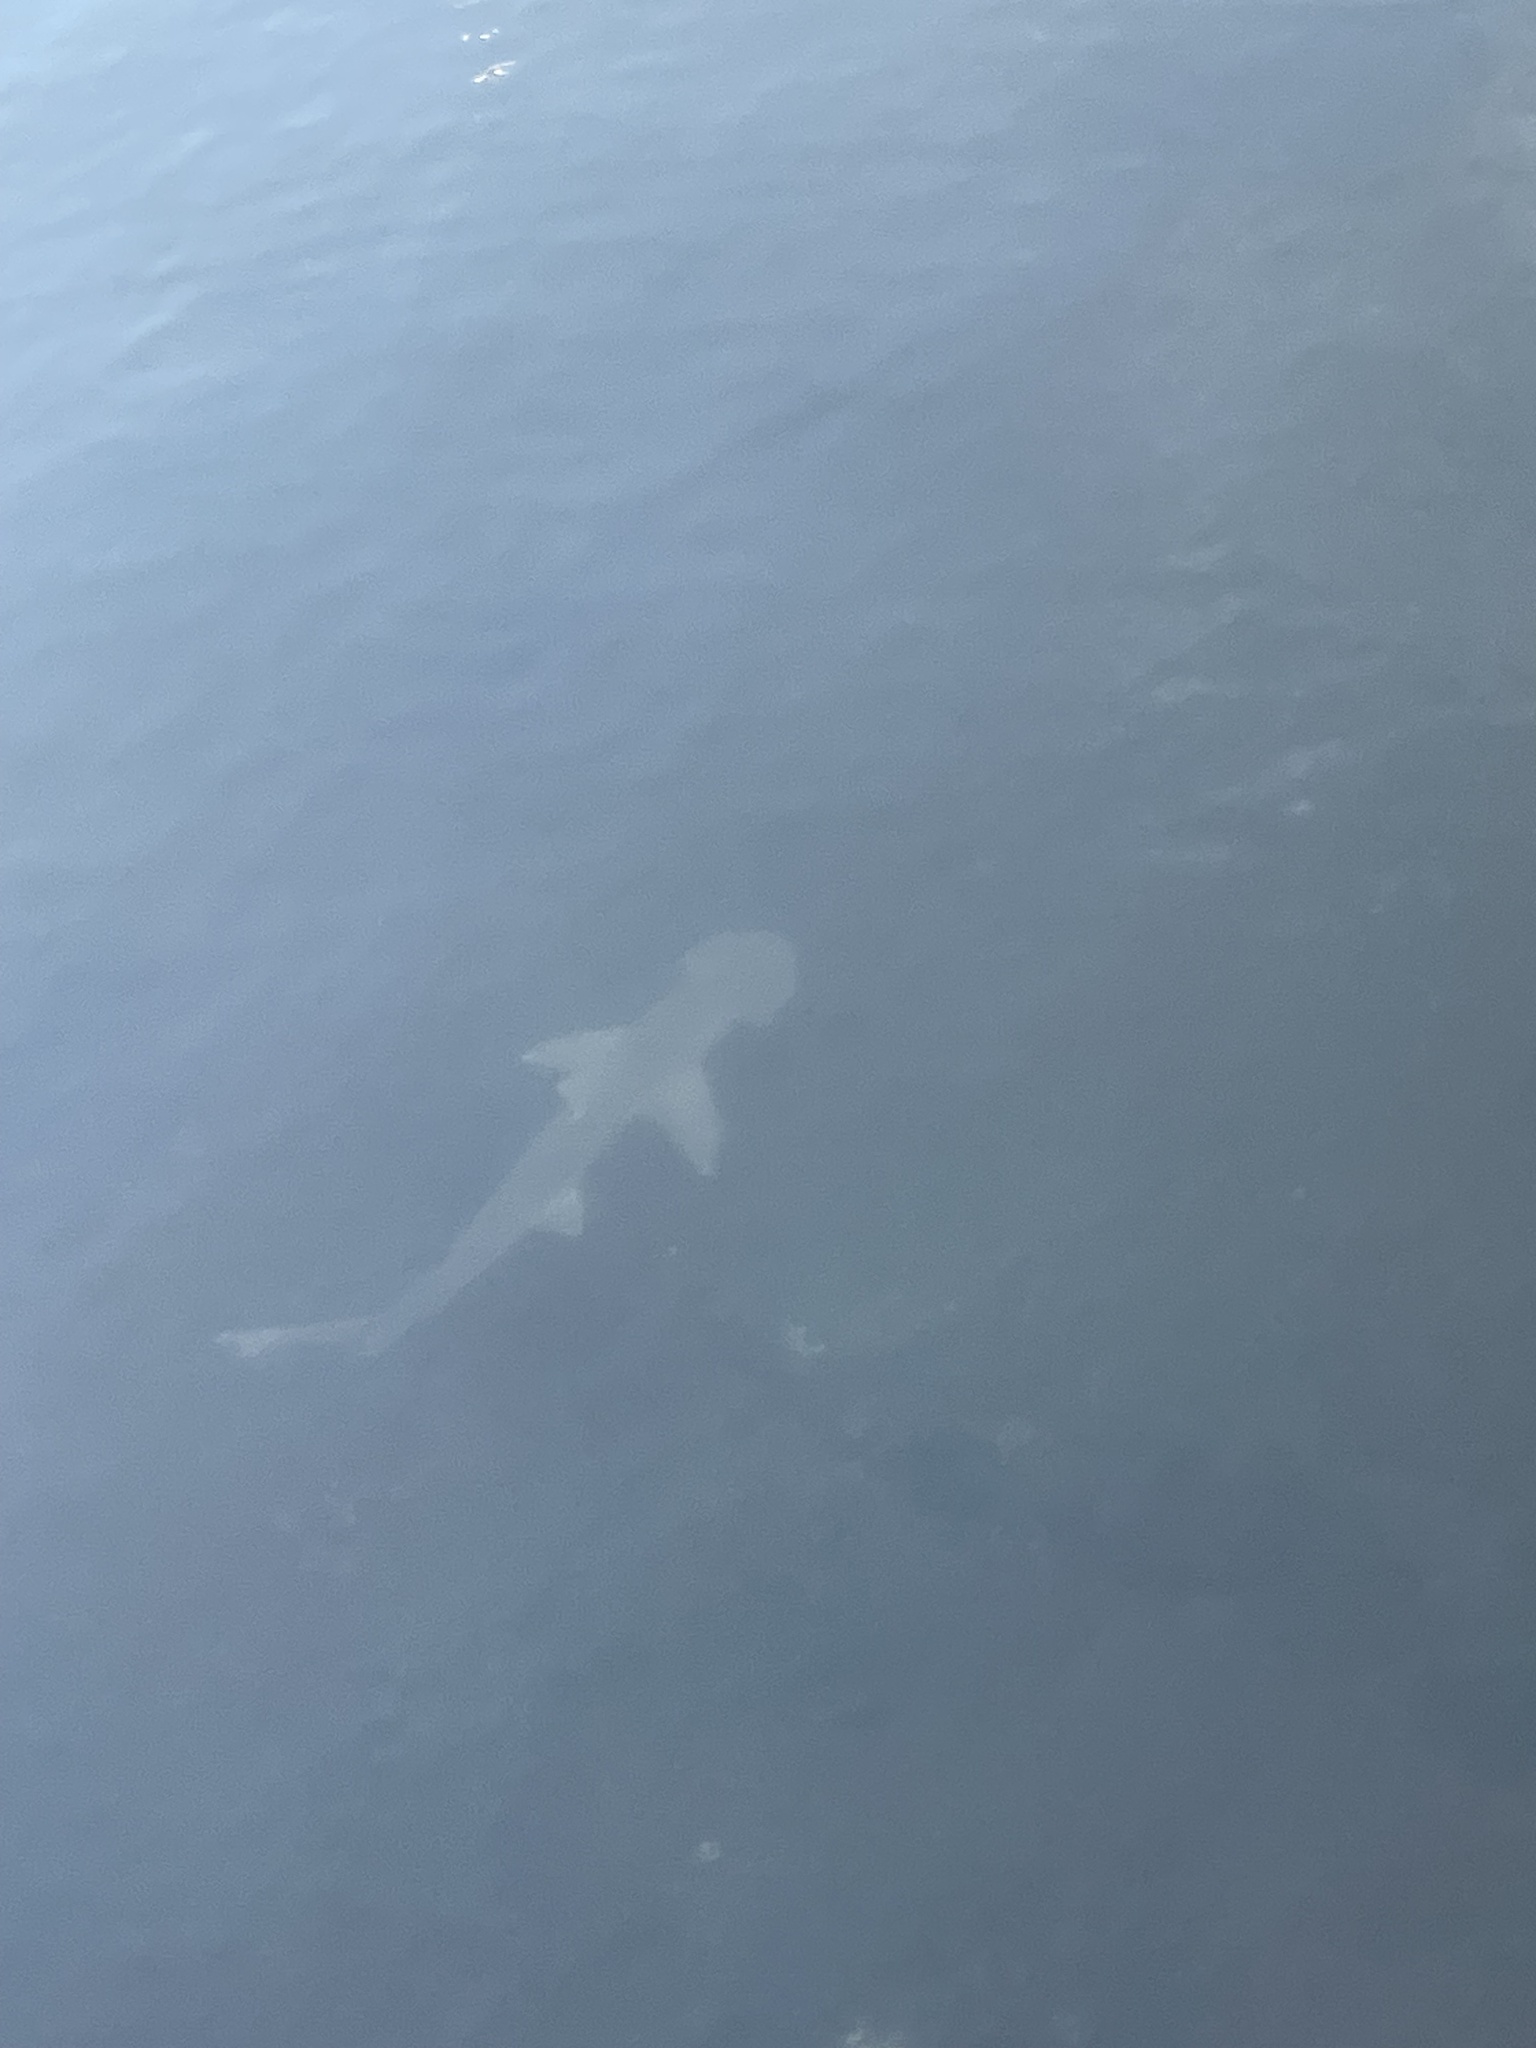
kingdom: Animalia
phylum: Chordata
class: Elasmobranchii
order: Carcharhiniformes
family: Sphyrnidae
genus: Sphyrna
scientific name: Sphyrna tiburo
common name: Bonnethead
